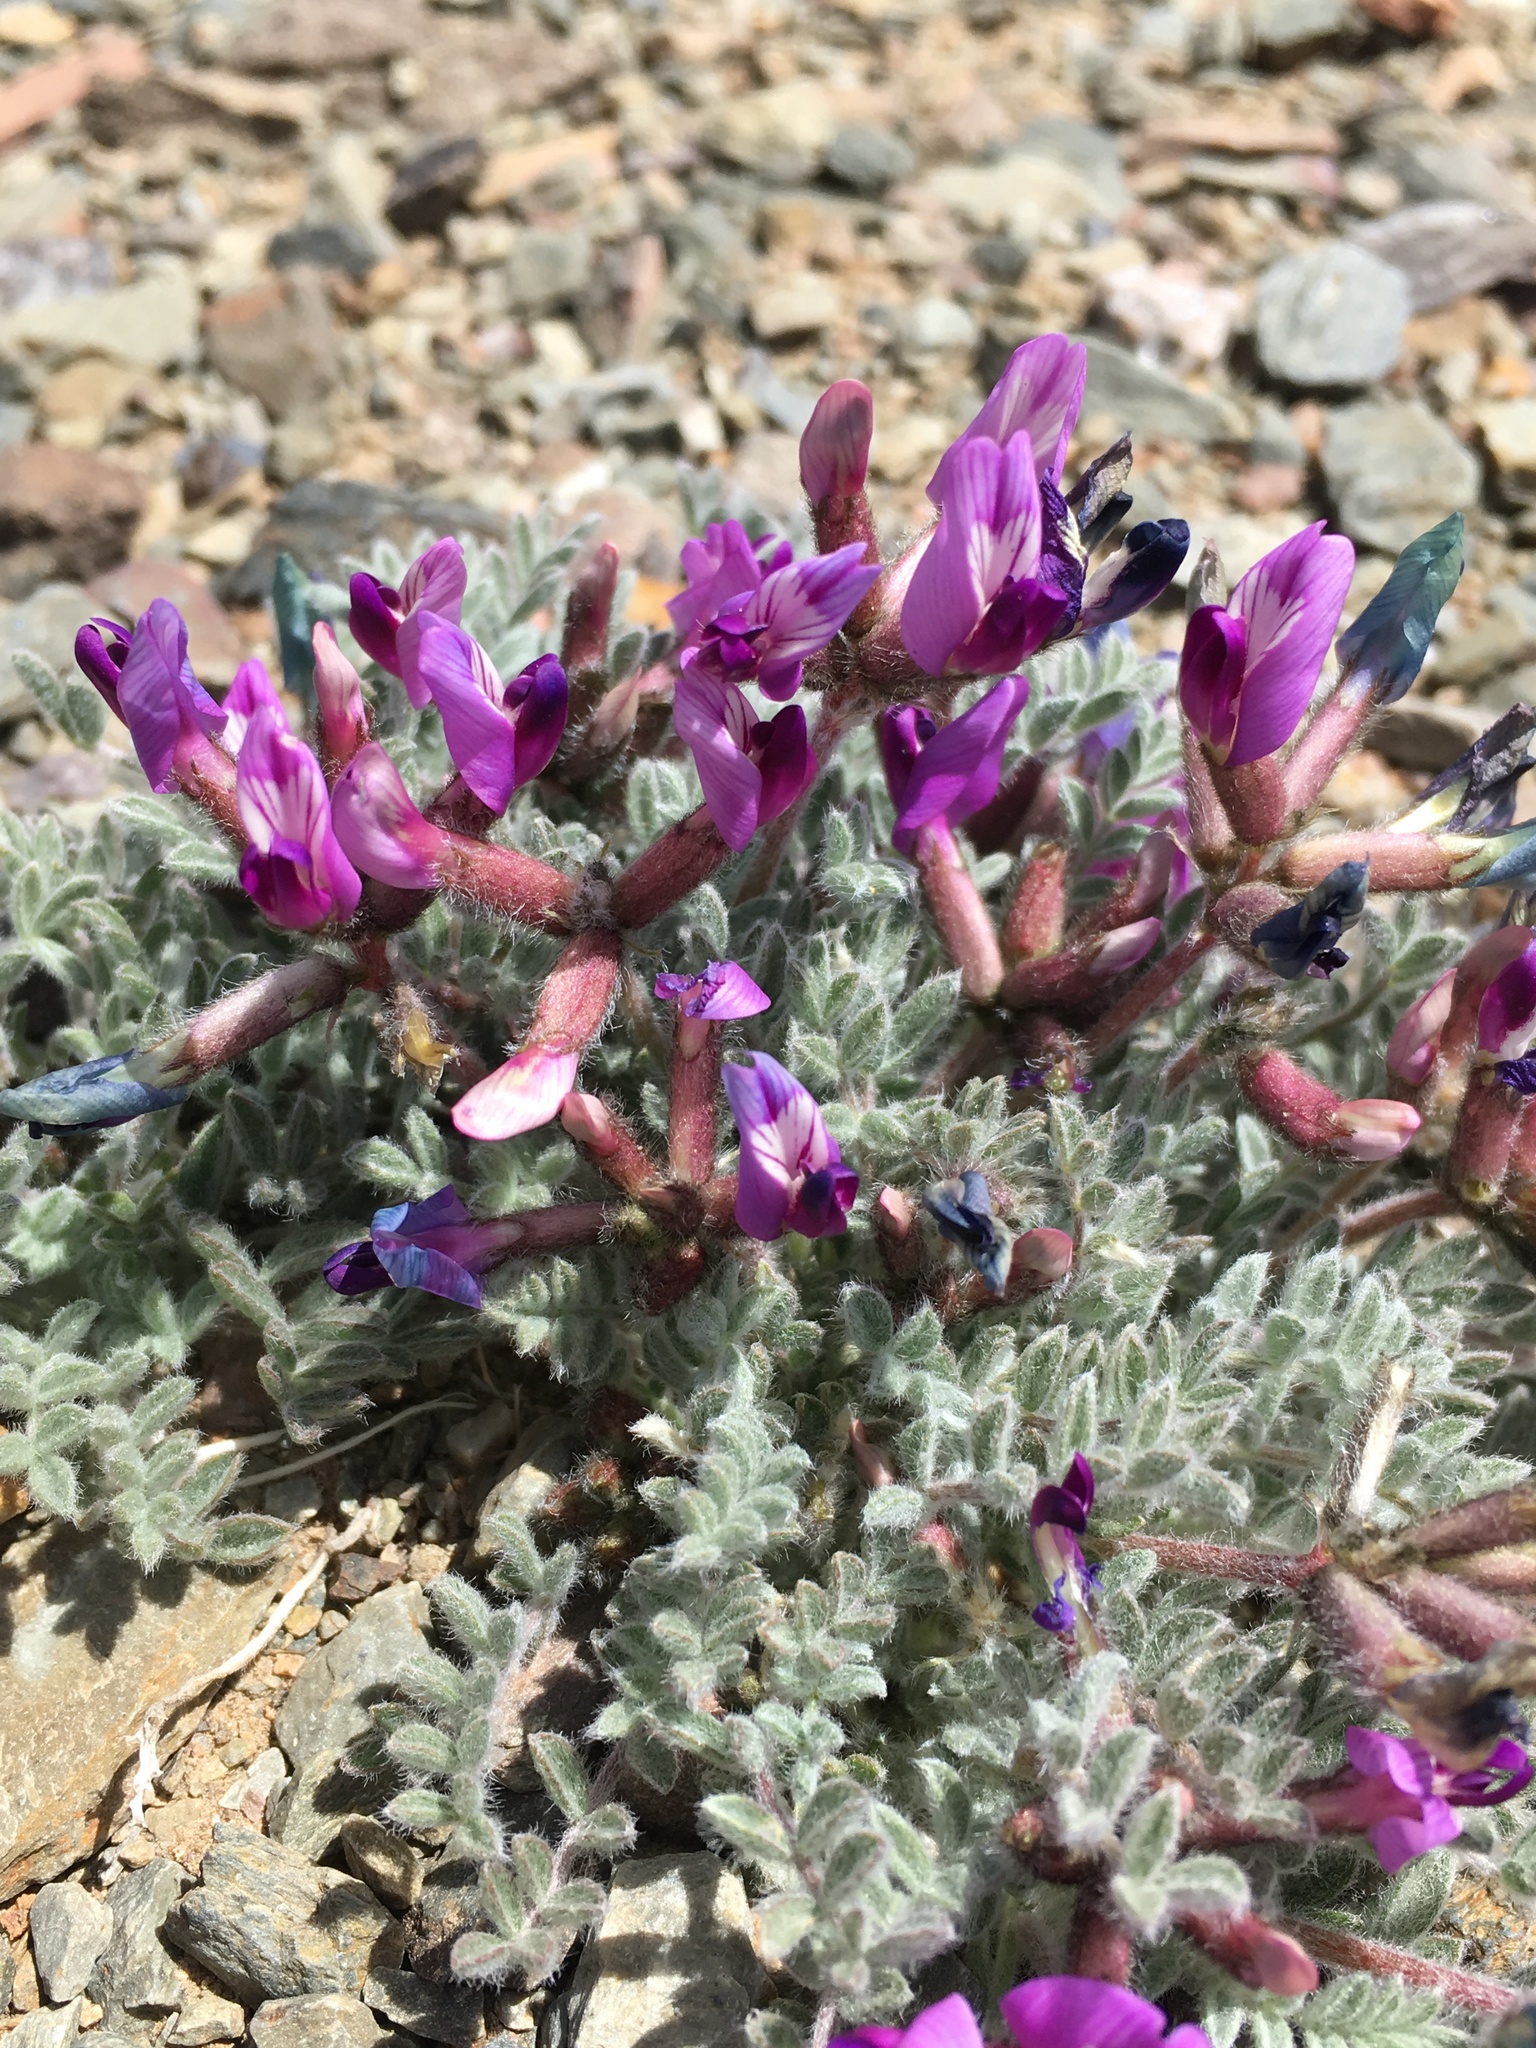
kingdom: Plantae
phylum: Tracheophyta
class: Magnoliopsida
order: Fabales
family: Fabaceae
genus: Astragalus
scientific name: Astragalus purshii
